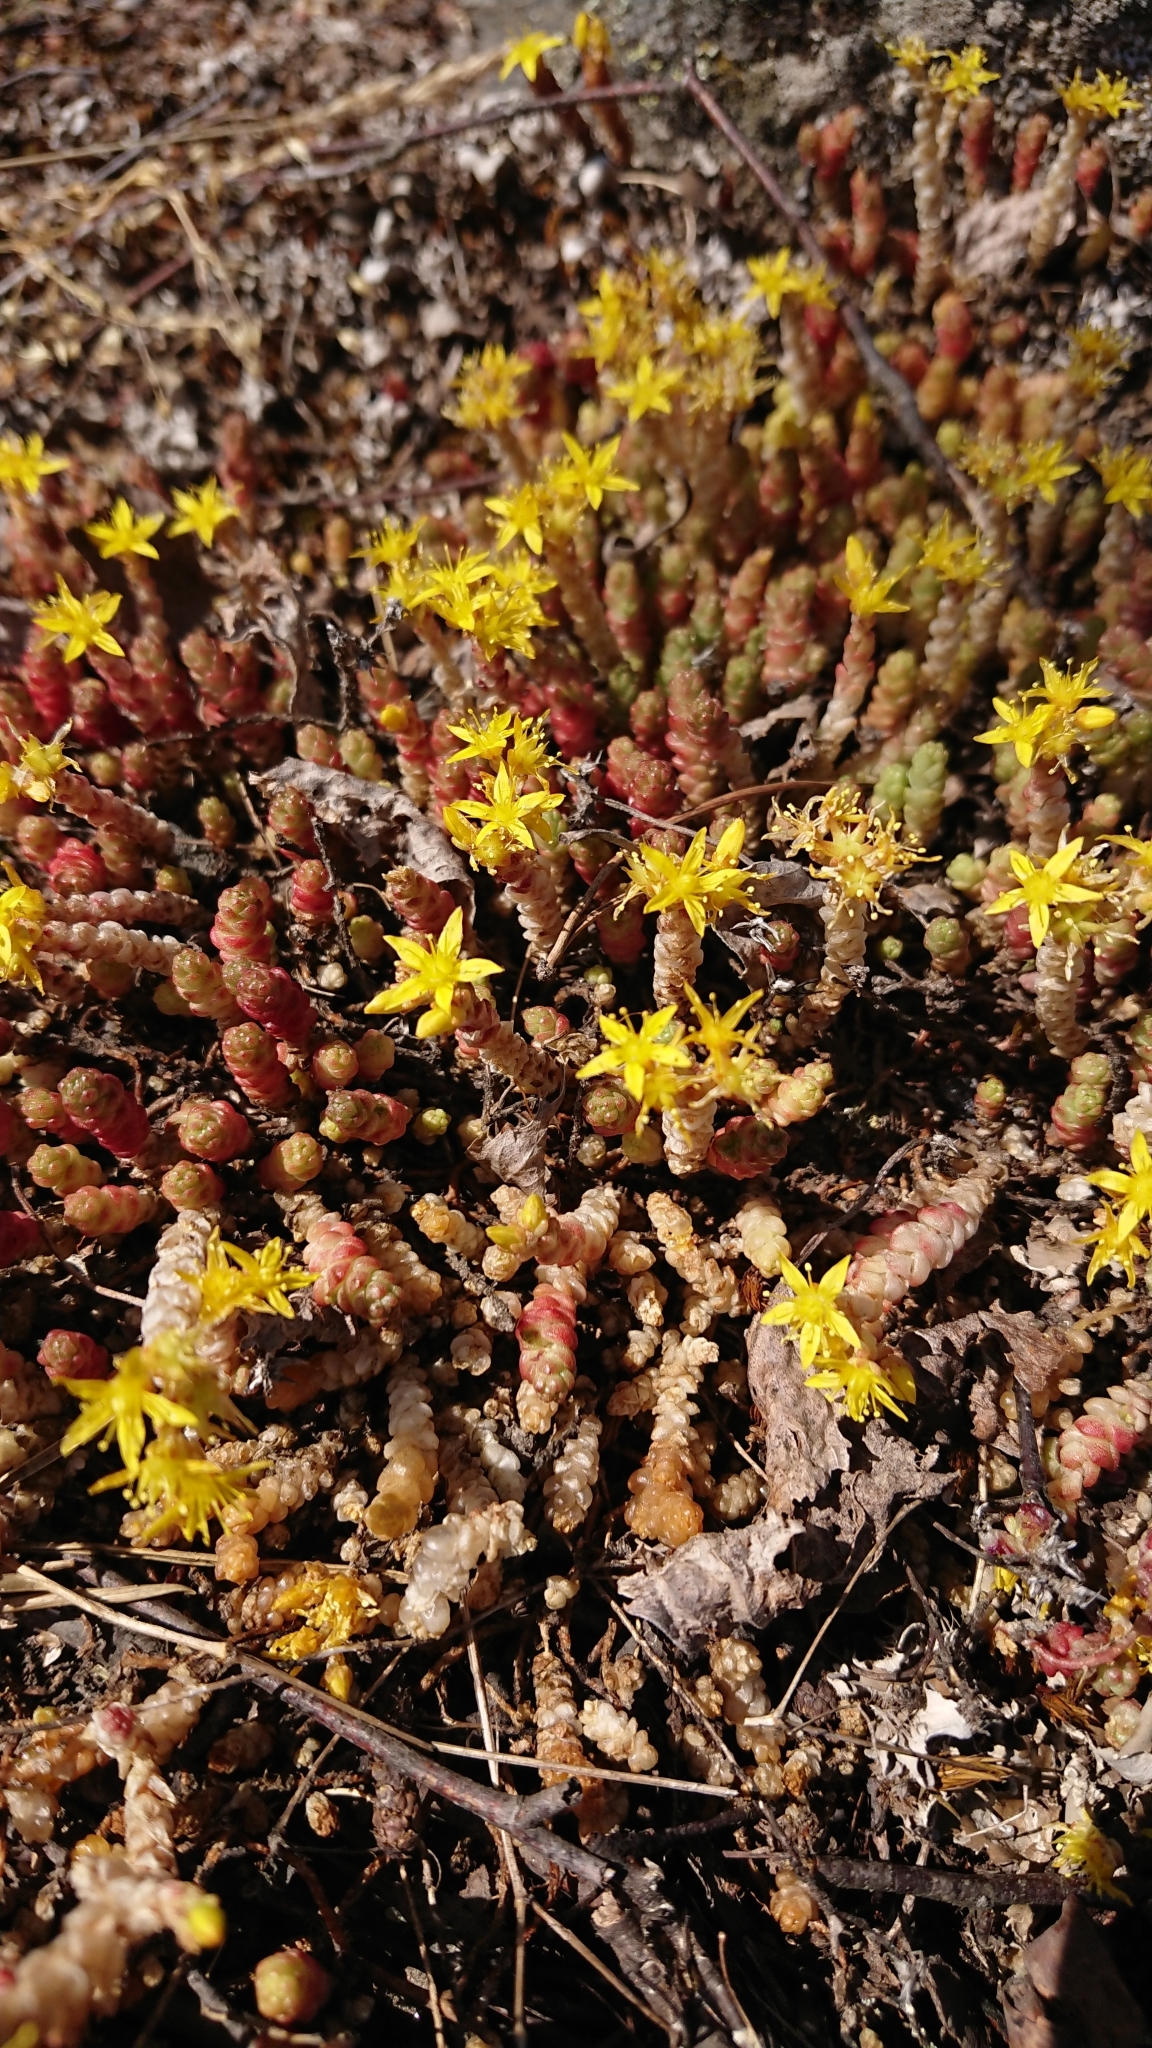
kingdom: Plantae
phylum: Tracheophyta
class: Magnoliopsida
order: Saxifragales
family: Crassulaceae
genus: Sedum
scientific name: Sedum acre
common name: Biting stonecrop
